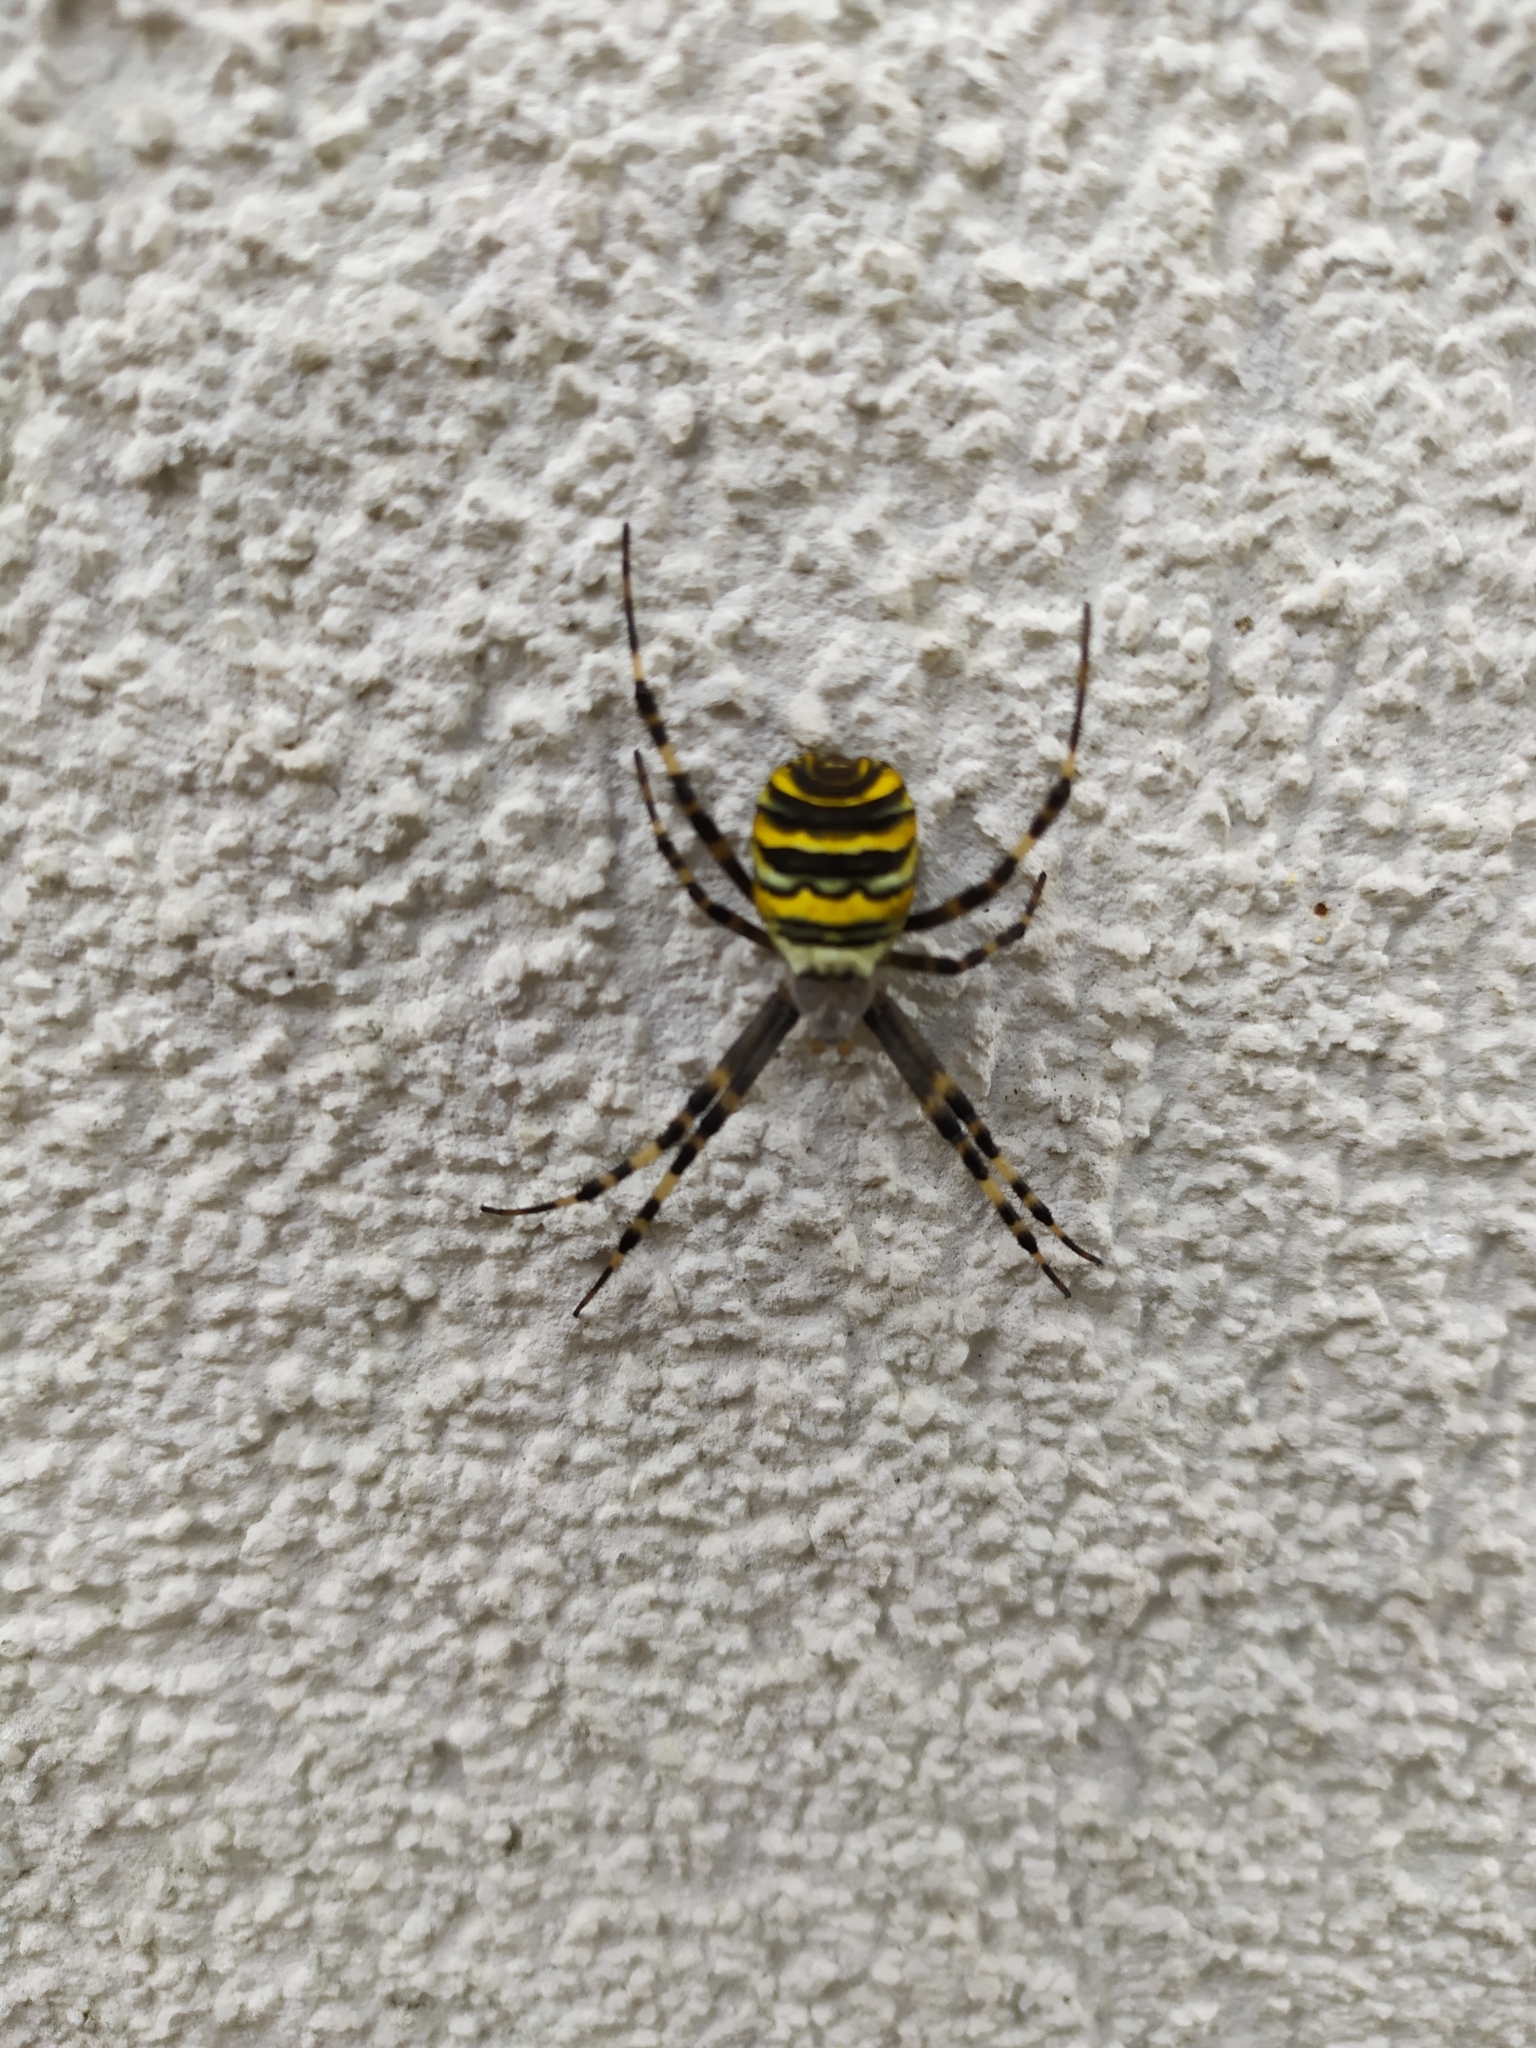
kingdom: Animalia
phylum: Arthropoda
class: Arachnida
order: Araneae
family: Araneidae
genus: Argiope
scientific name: Argiope bruennichi
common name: Wasp spider
